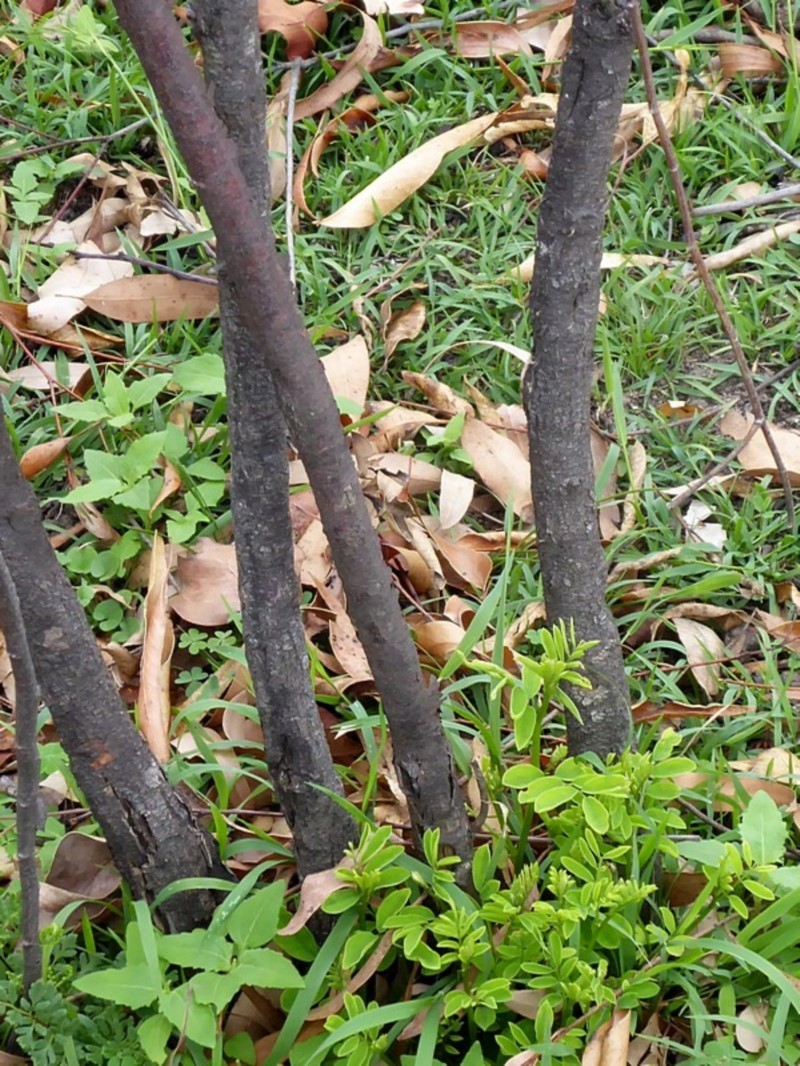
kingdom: Plantae
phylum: Tracheophyta
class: Magnoliopsida
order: Fabales
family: Fabaceae
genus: Indigofera
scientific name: Indigofera australis
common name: Australian indigo
